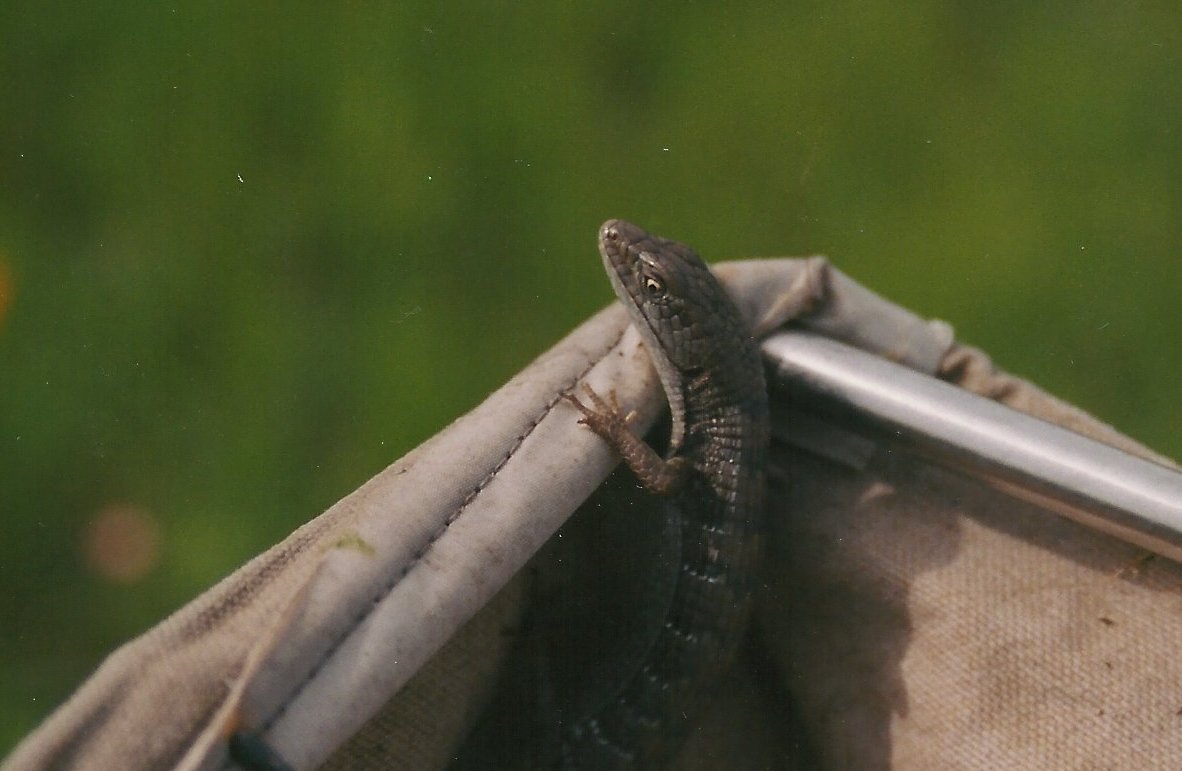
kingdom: Animalia
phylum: Chordata
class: Squamata
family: Anguidae
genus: Elgaria
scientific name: Elgaria multicarinata
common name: Southern alligator lizard
